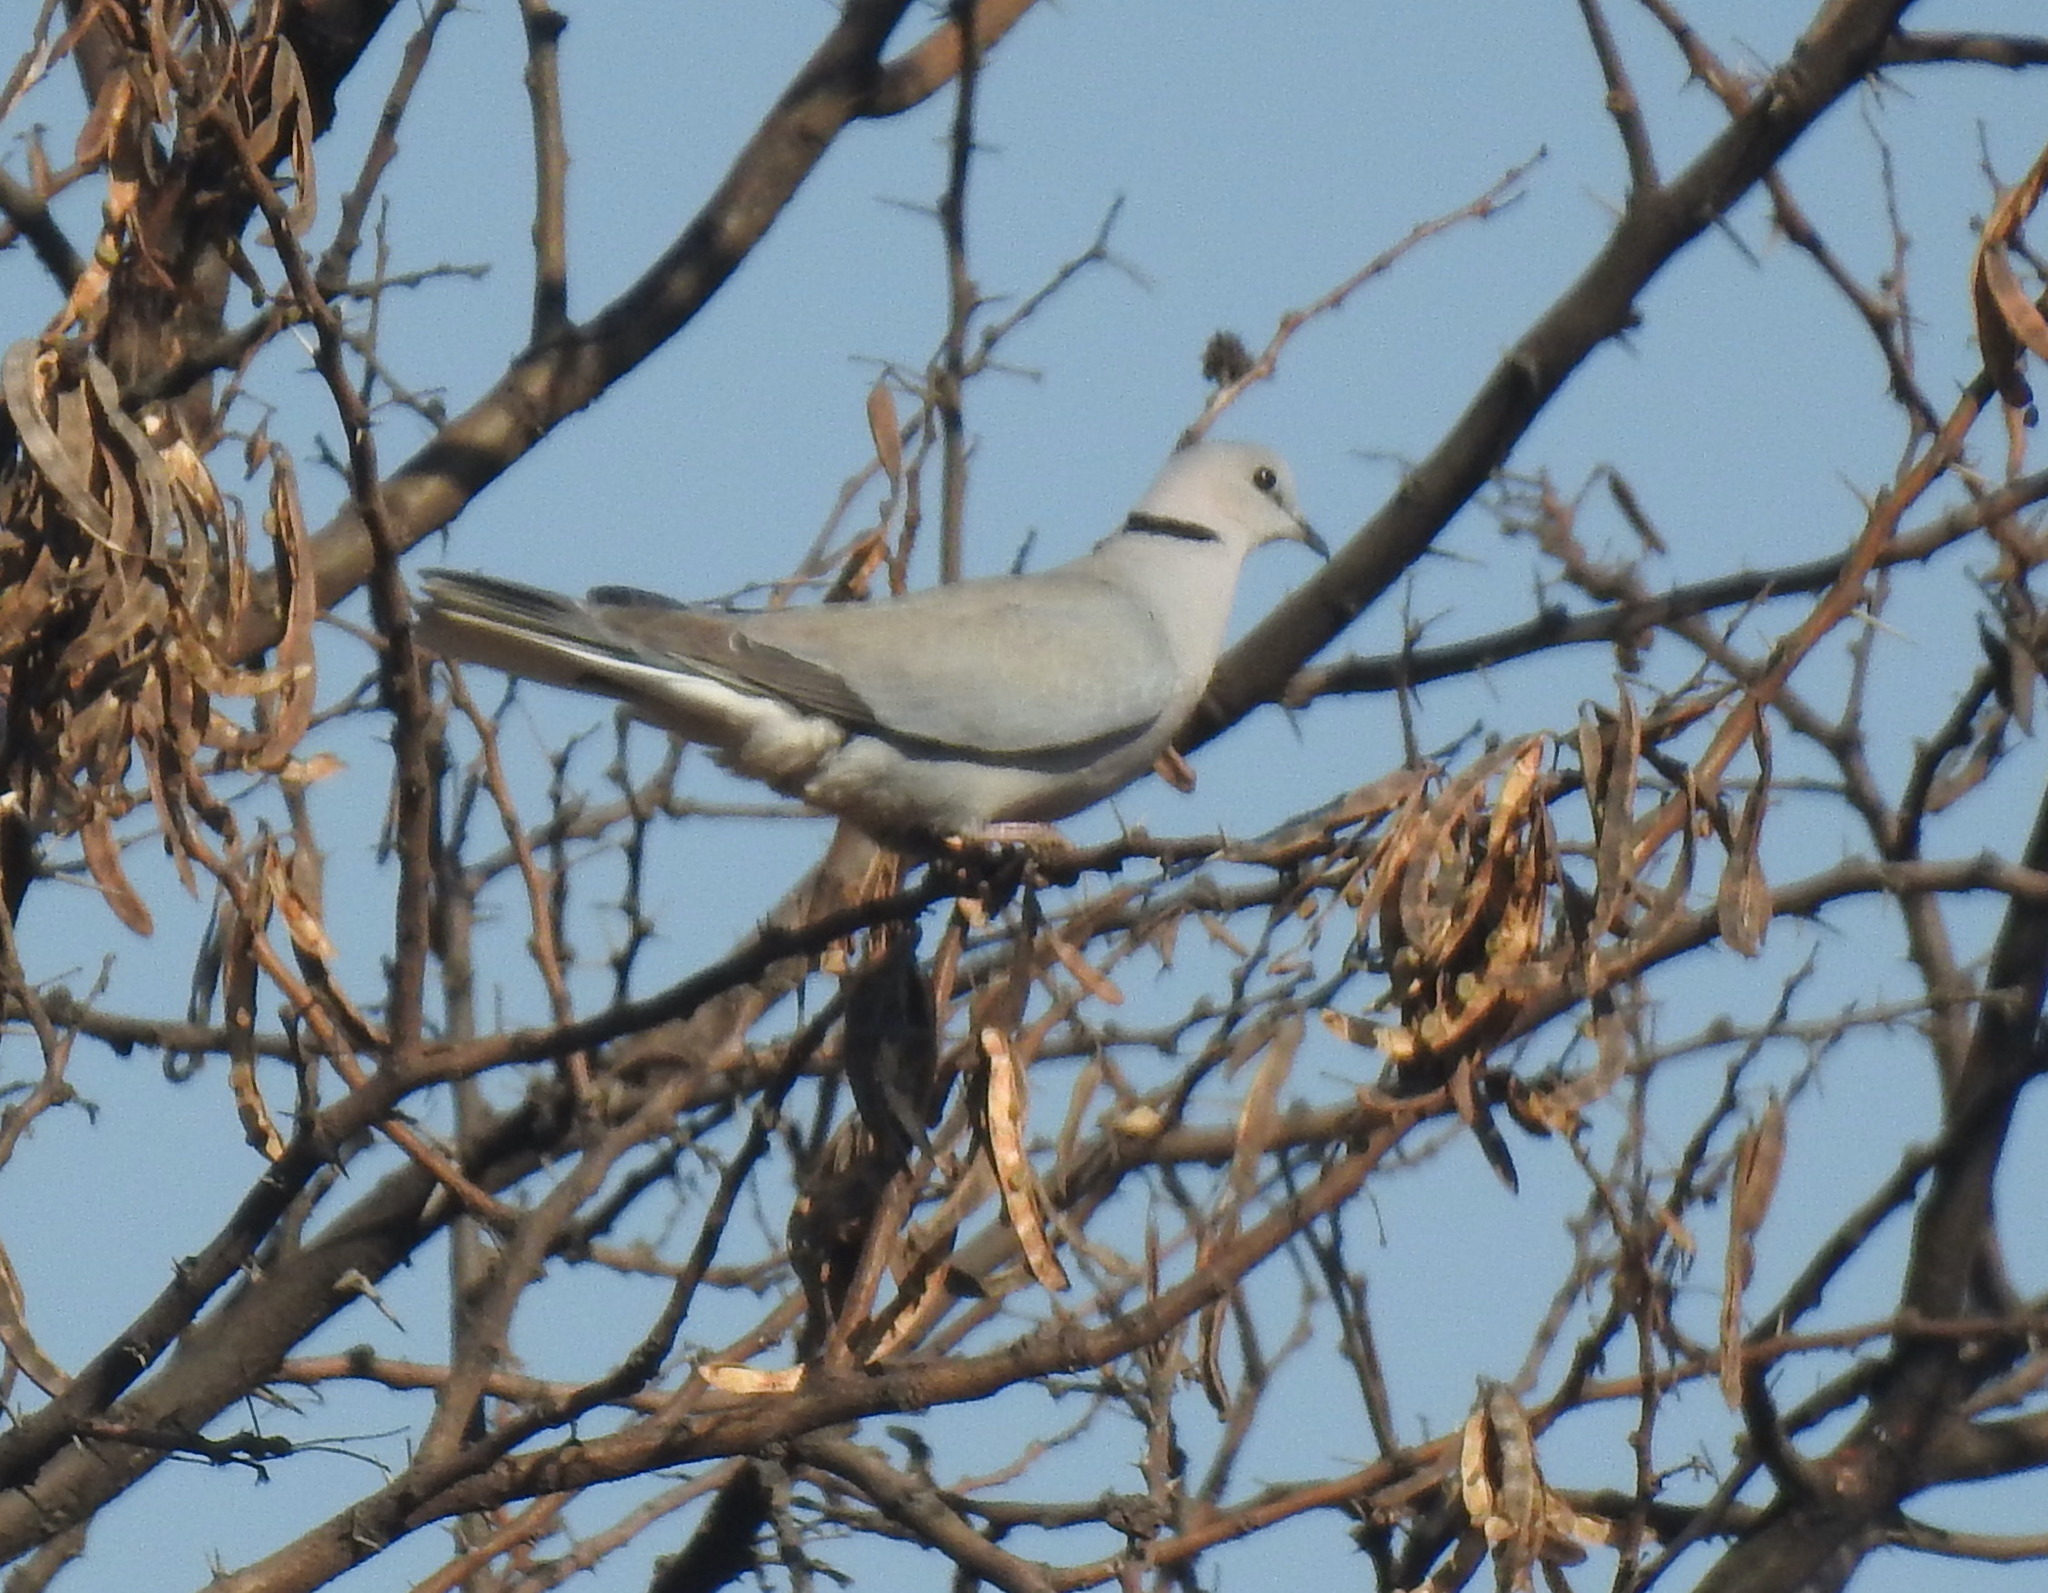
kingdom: Animalia
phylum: Chordata
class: Aves
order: Columbiformes
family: Columbidae
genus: Streptopelia
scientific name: Streptopelia capicola
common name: Ring-necked dove
